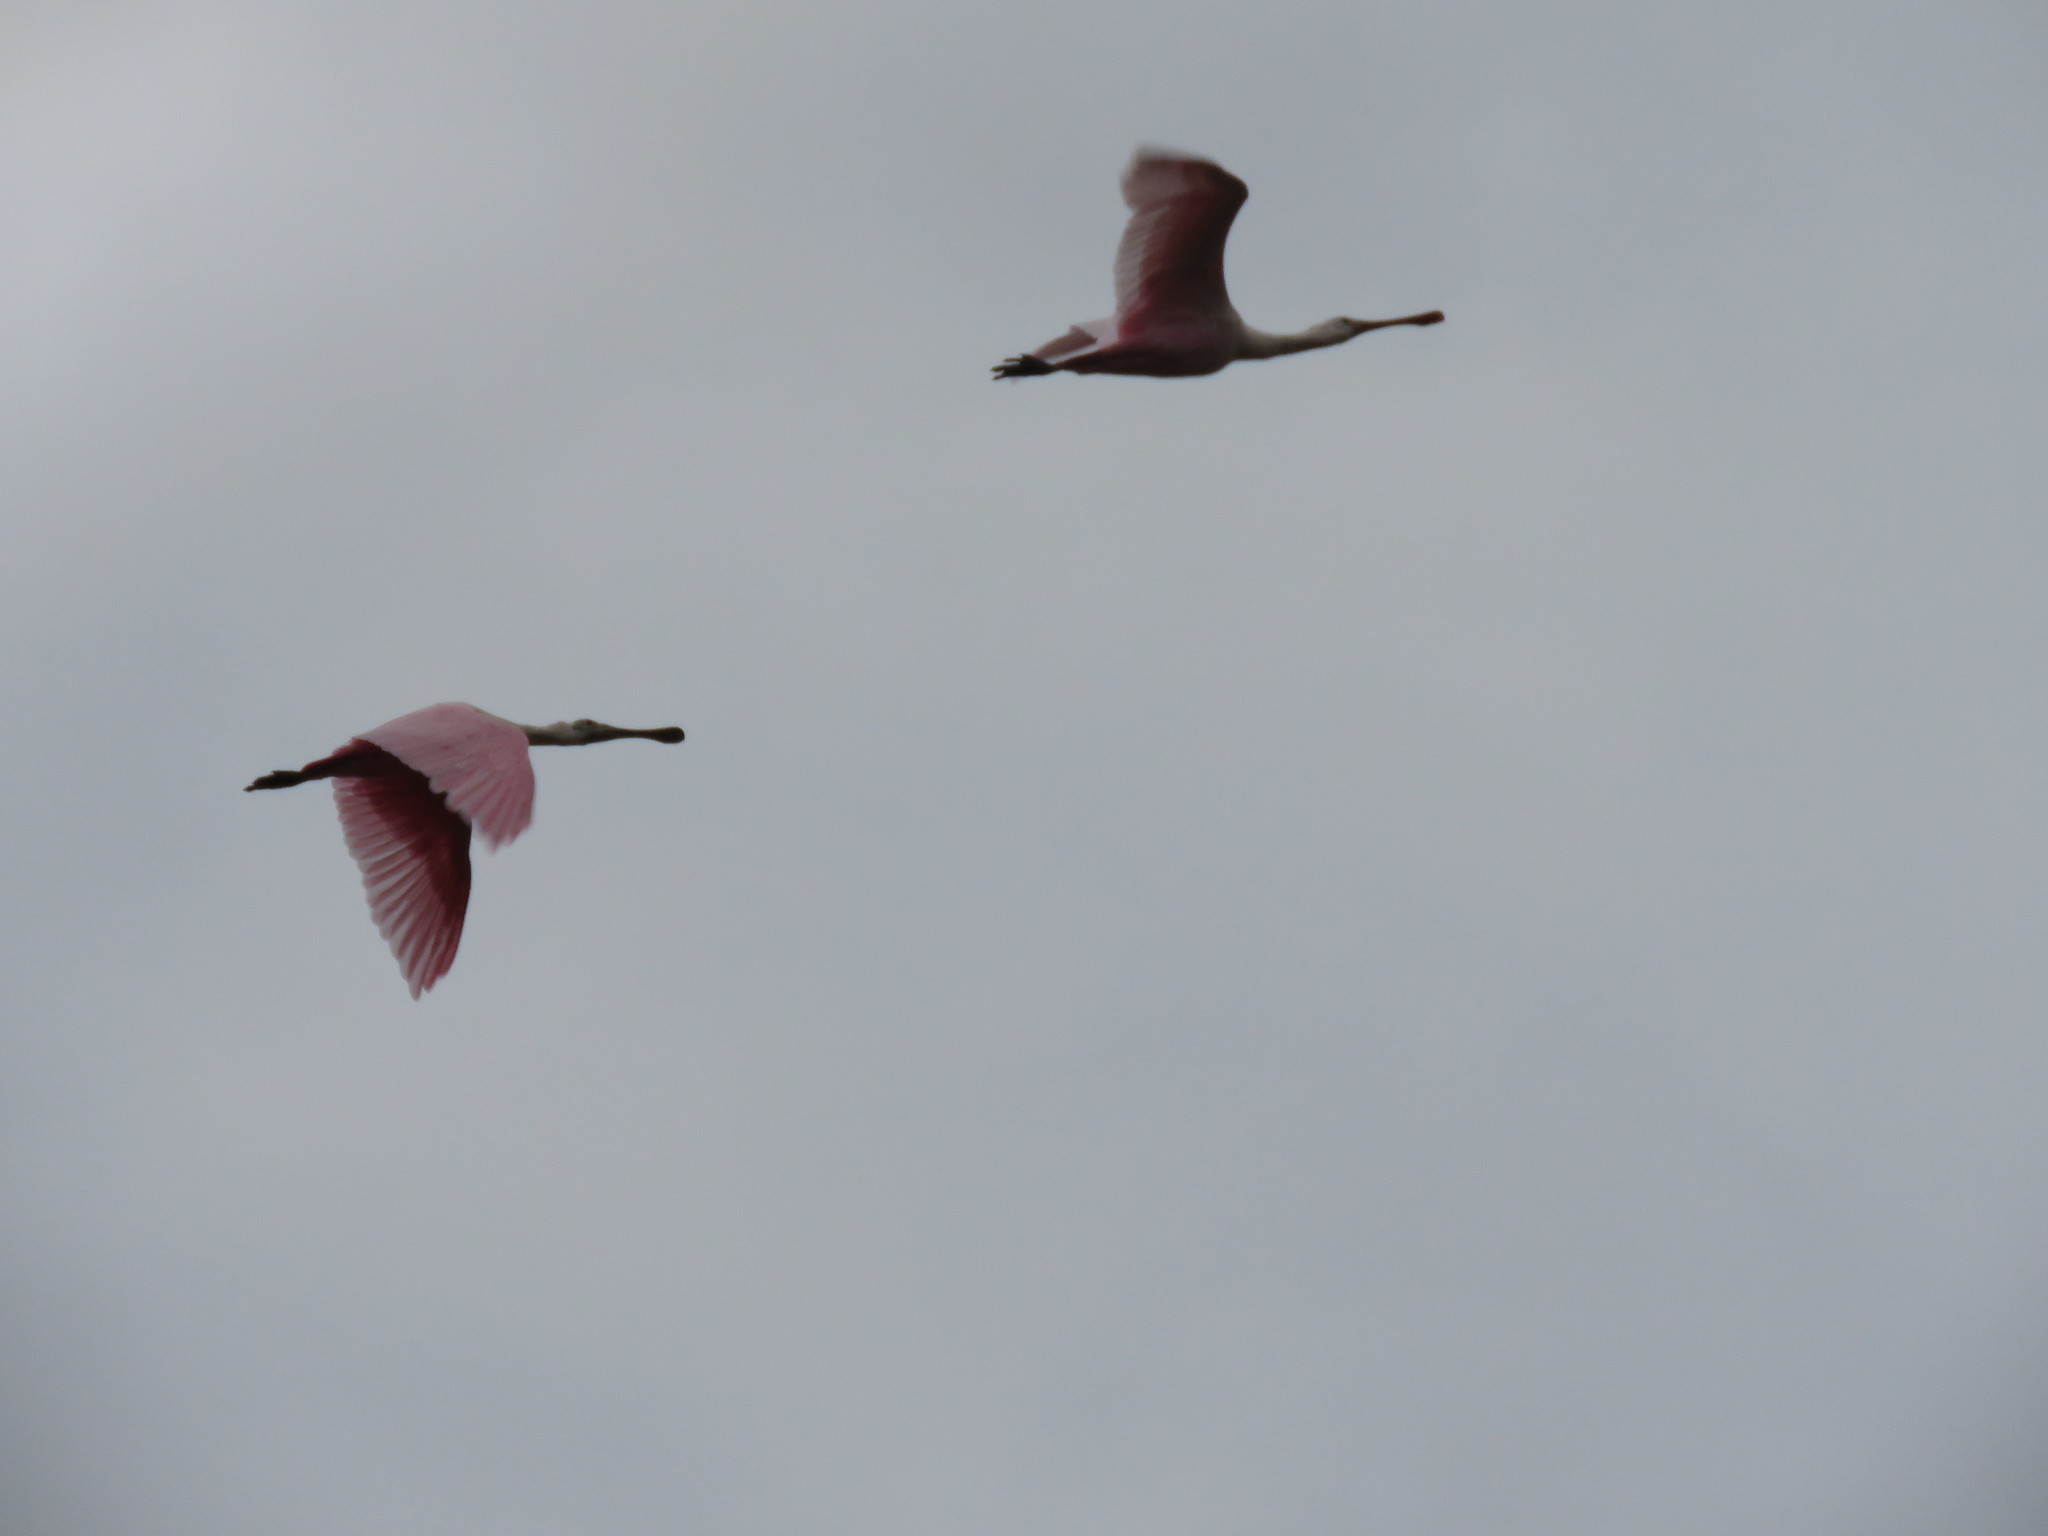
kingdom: Animalia
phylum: Chordata
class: Aves
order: Pelecaniformes
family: Threskiornithidae
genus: Platalea
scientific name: Platalea ajaja
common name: Roseate spoonbill
